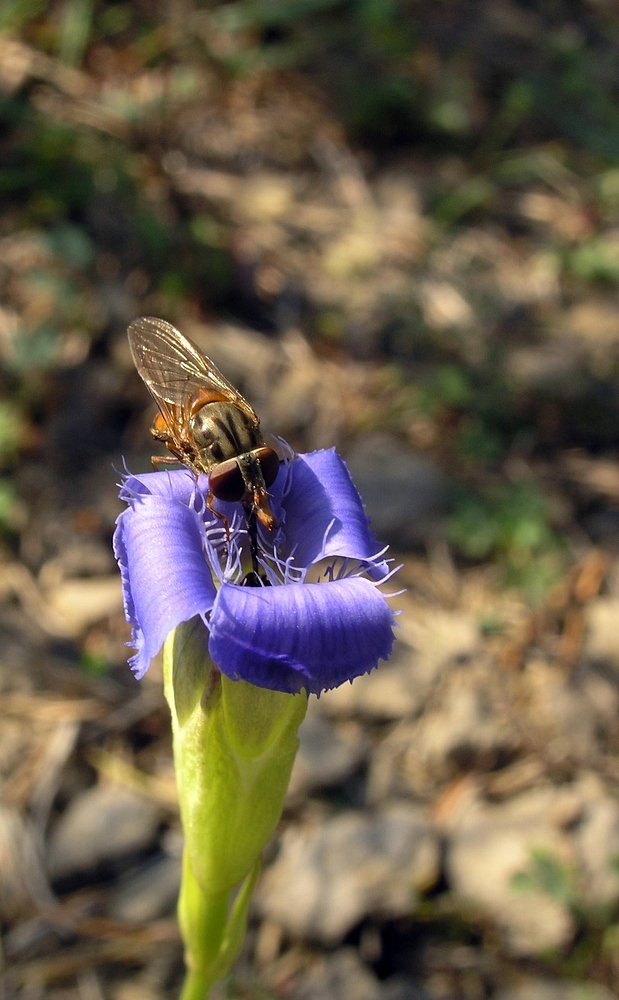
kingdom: Animalia
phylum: Arthropoda
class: Insecta
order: Diptera
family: Syrphidae
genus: Rhingia
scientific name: Rhingia campestris
